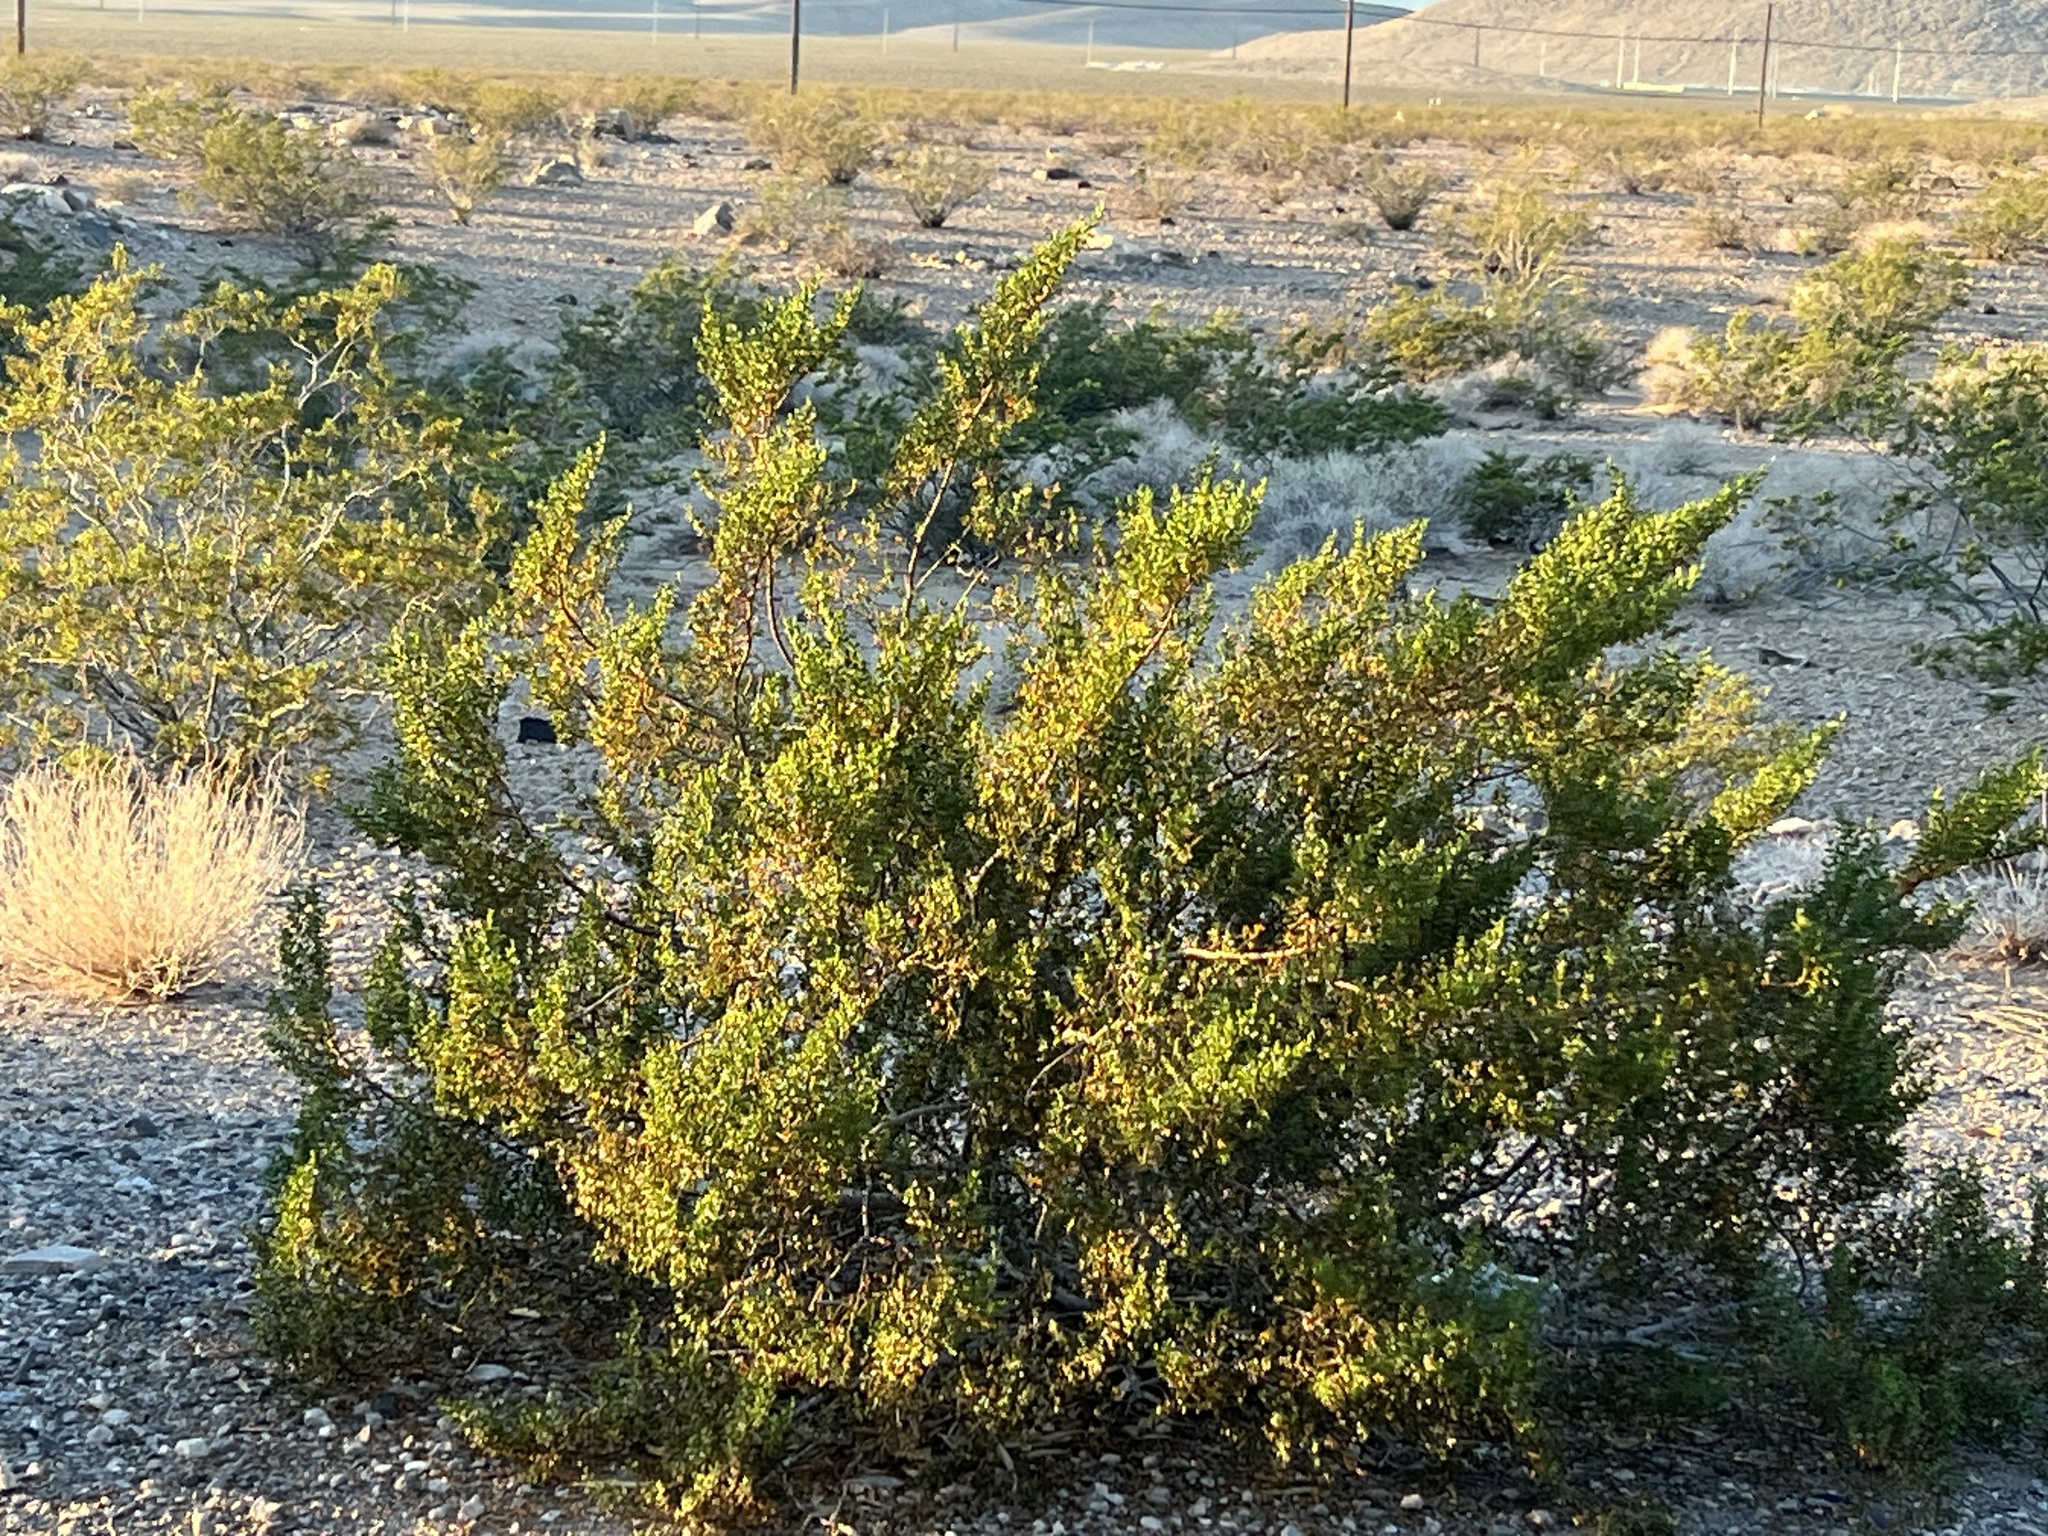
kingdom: Plantae
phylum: Tracheophyta
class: Magnoliopsida
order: Zygophyllales
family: Zygophyllaceae
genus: Larrea
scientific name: Larrea tridentata
